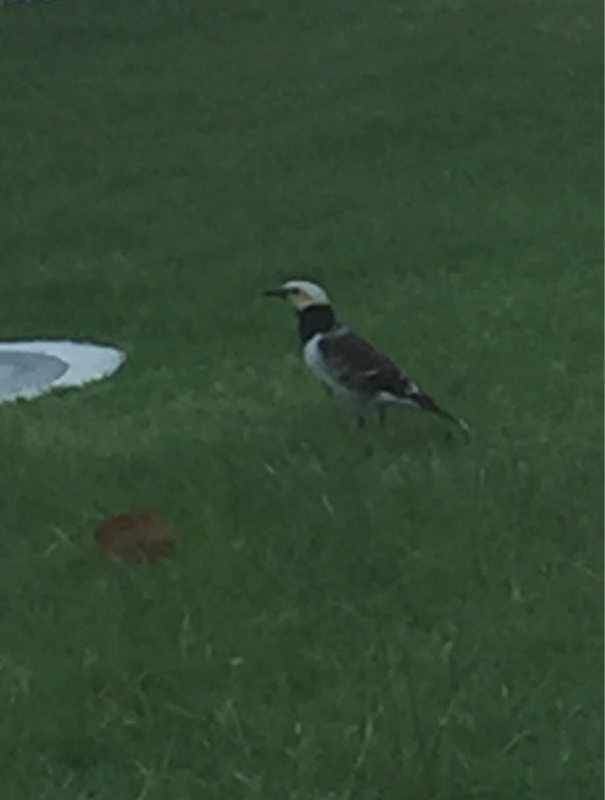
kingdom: Animalia
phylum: Chordata
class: Aves
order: Passeriformes
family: Sturnidae
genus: Gracupica
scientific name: Gracupica nigricollis
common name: Black-collared starling
